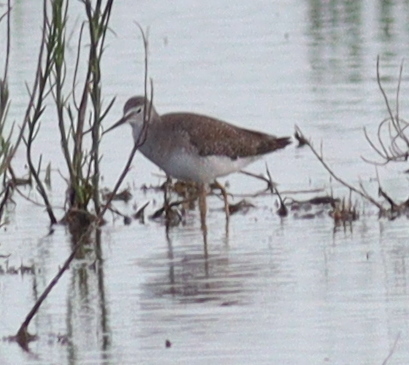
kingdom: Animalia
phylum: Chordata
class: Aves
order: Charadriiformes
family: Scolopacidae
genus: Tringa
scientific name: Tringa flavipes
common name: Lesser yellowlegs
